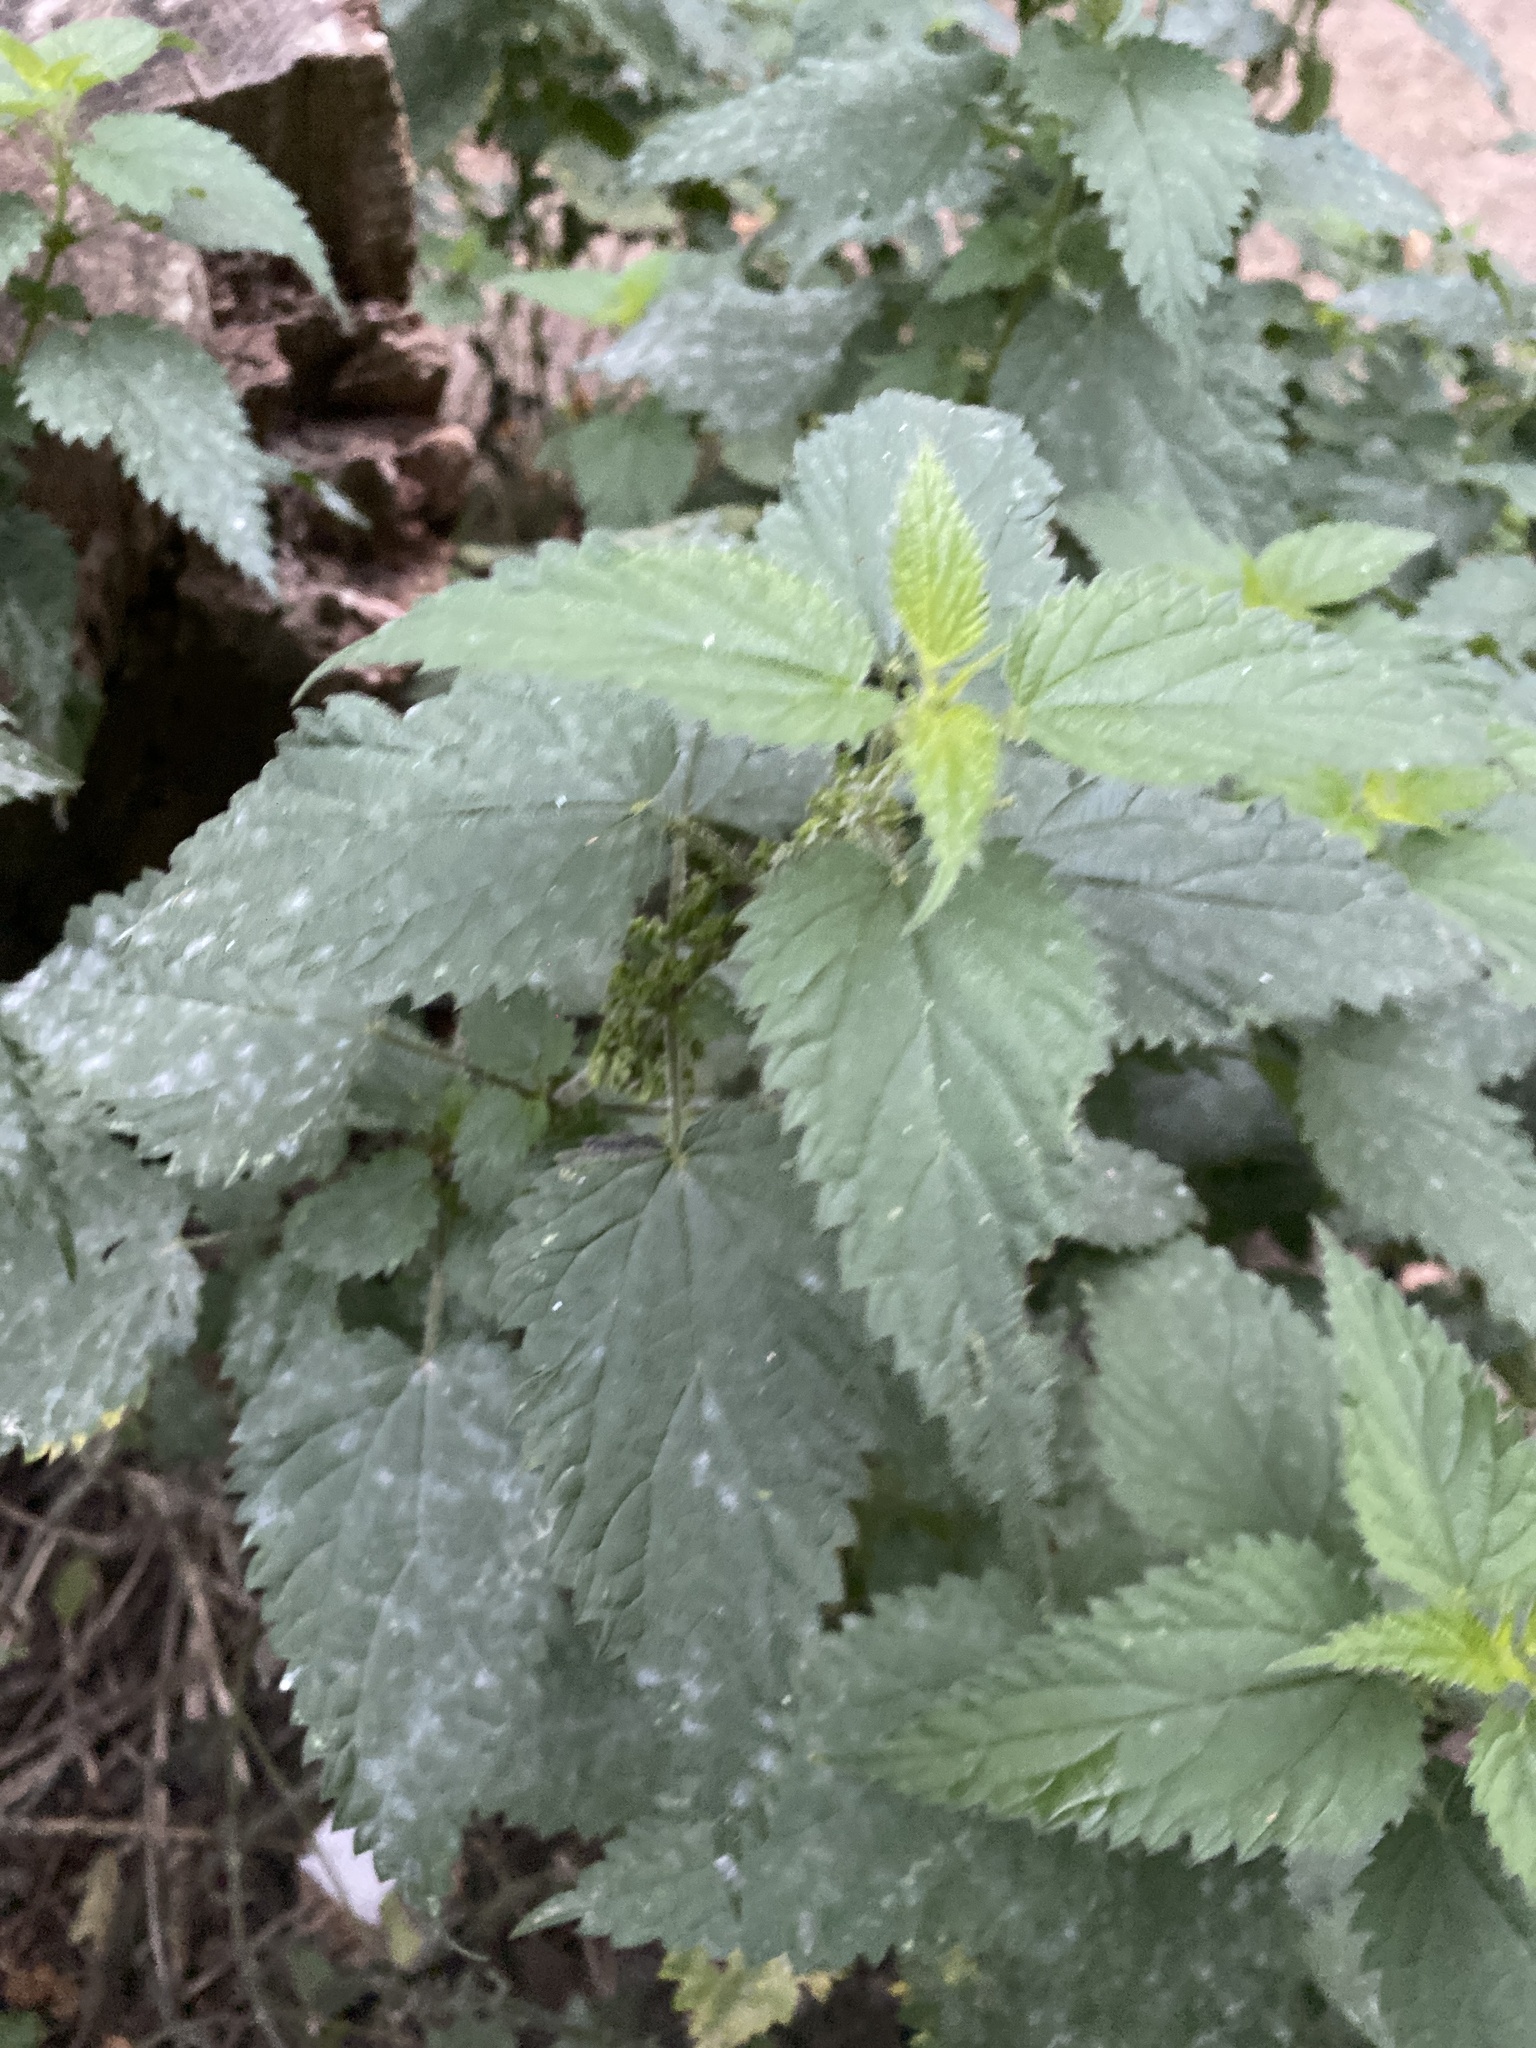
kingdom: Plantae
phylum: Tracheophyta
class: Magnoliopsida
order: Rosales
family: Urticaceae
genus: Urtica
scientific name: Urtica dioica
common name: Common nettle
